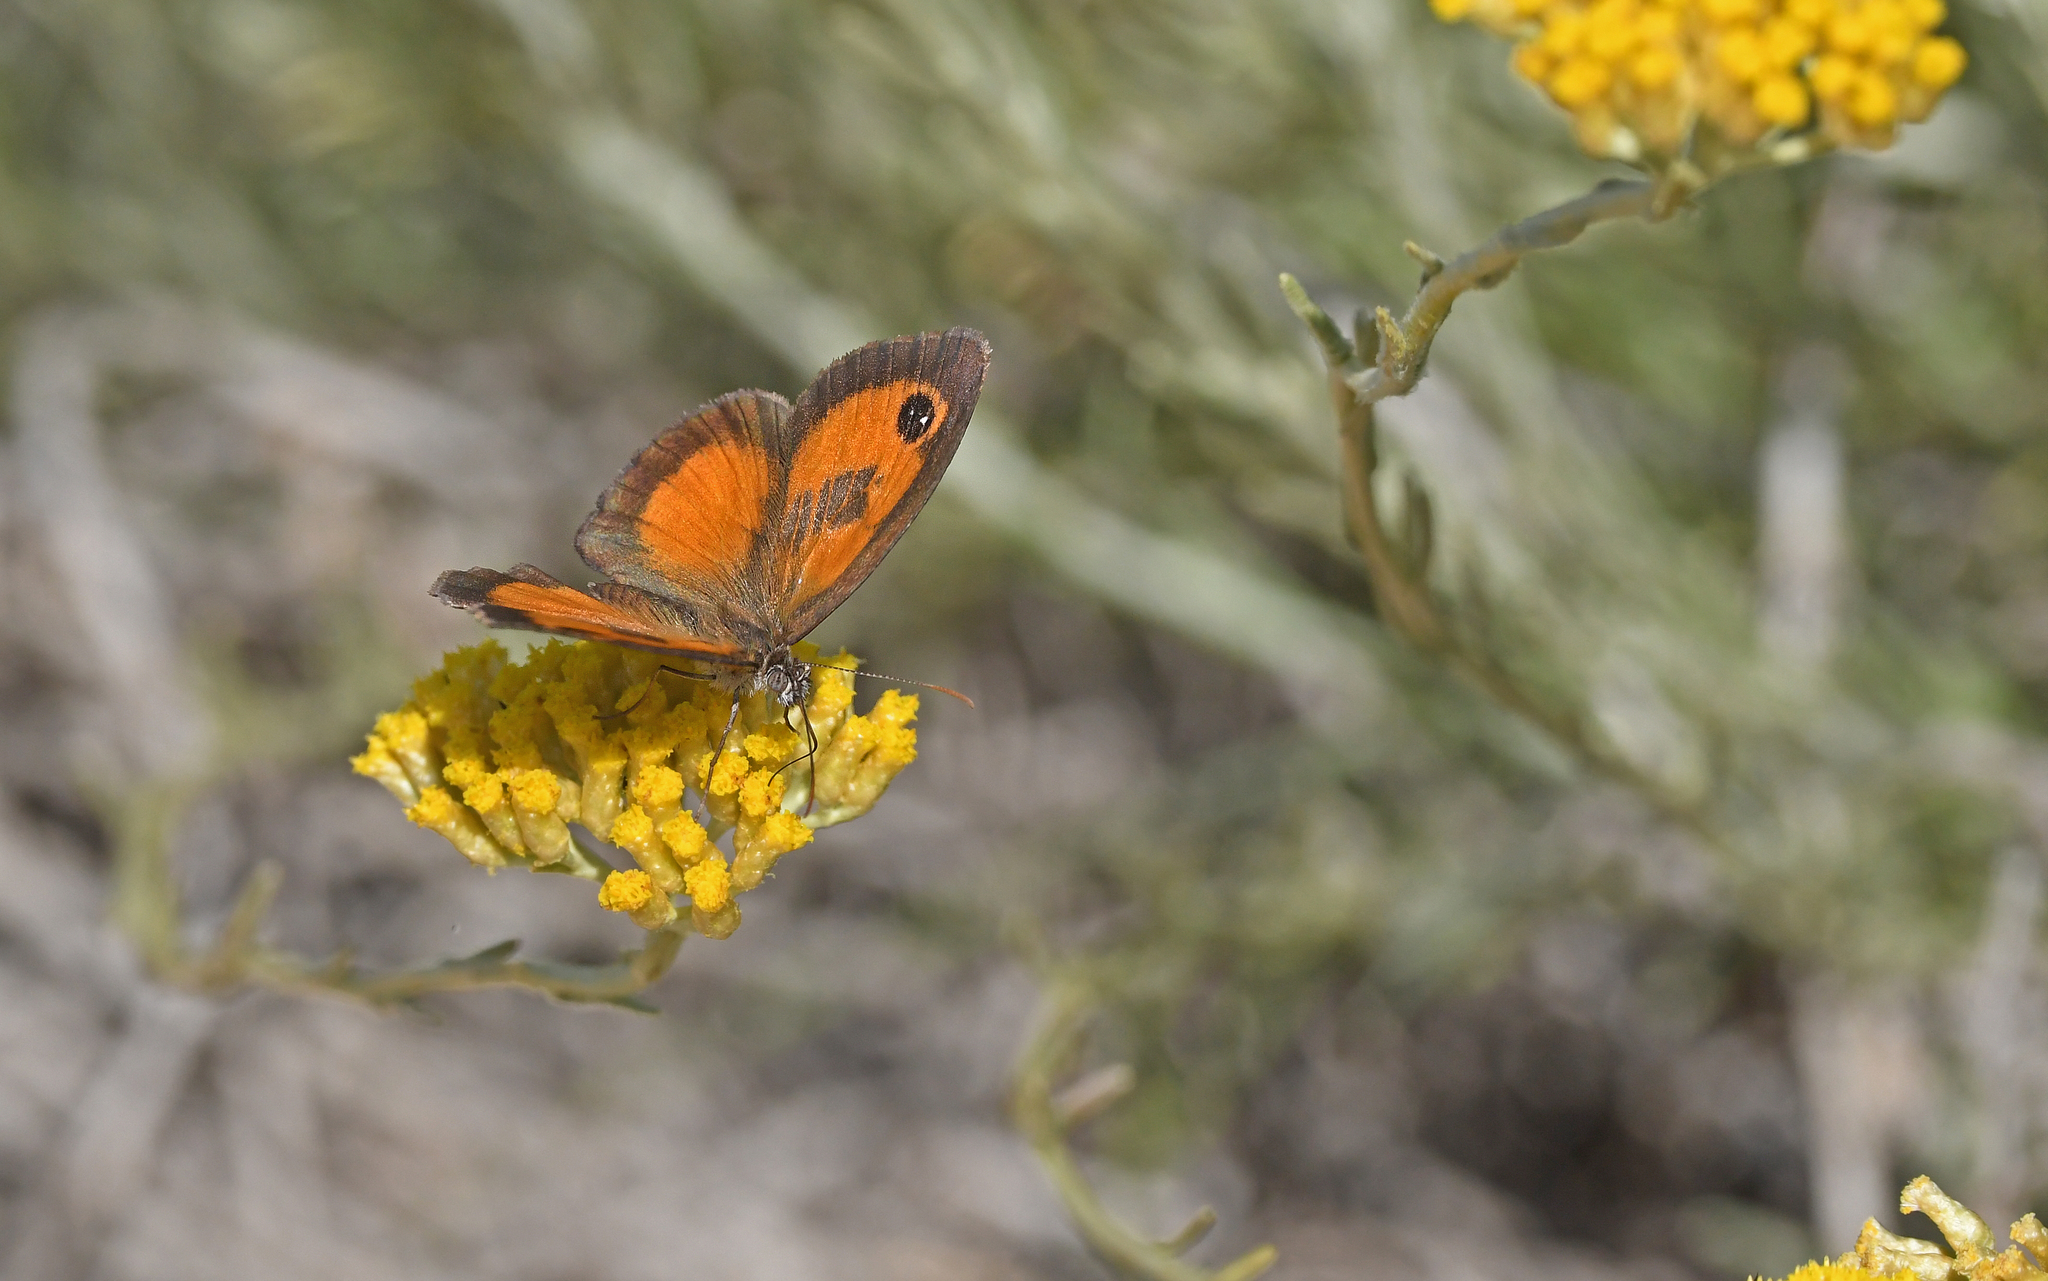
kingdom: Animalia
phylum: Arthropoda
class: Insecta
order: Lepidoptera
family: Nymphalidae
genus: Pyronia
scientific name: Pyronia cecilia
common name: Southern gatekeeper
